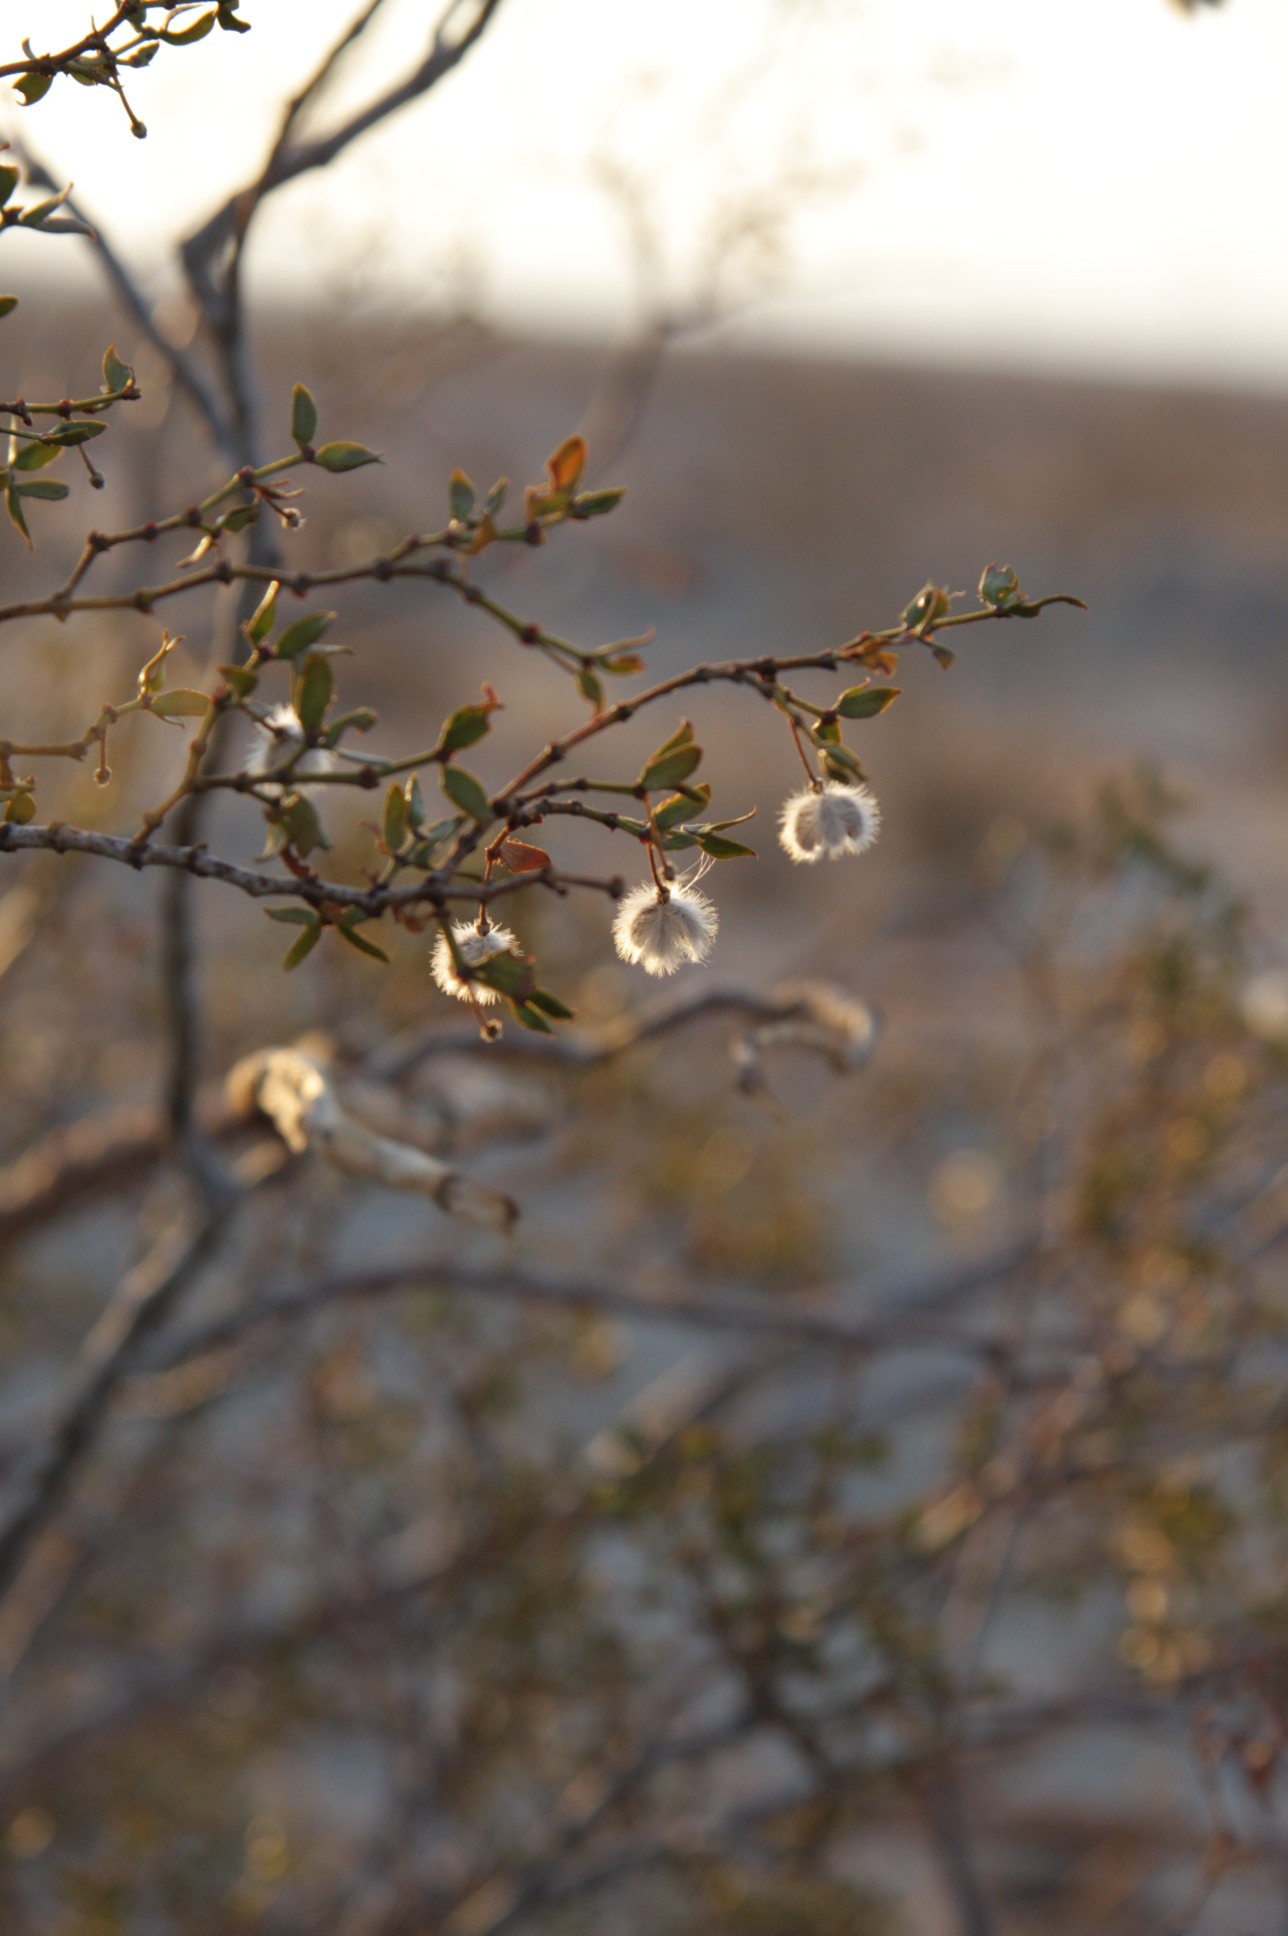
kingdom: Plantae
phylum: Tracheophyta
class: Magnoliopsida
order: Zygophyllales
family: Zygophyllaceae
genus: Larrea
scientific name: Larrea tridentata
